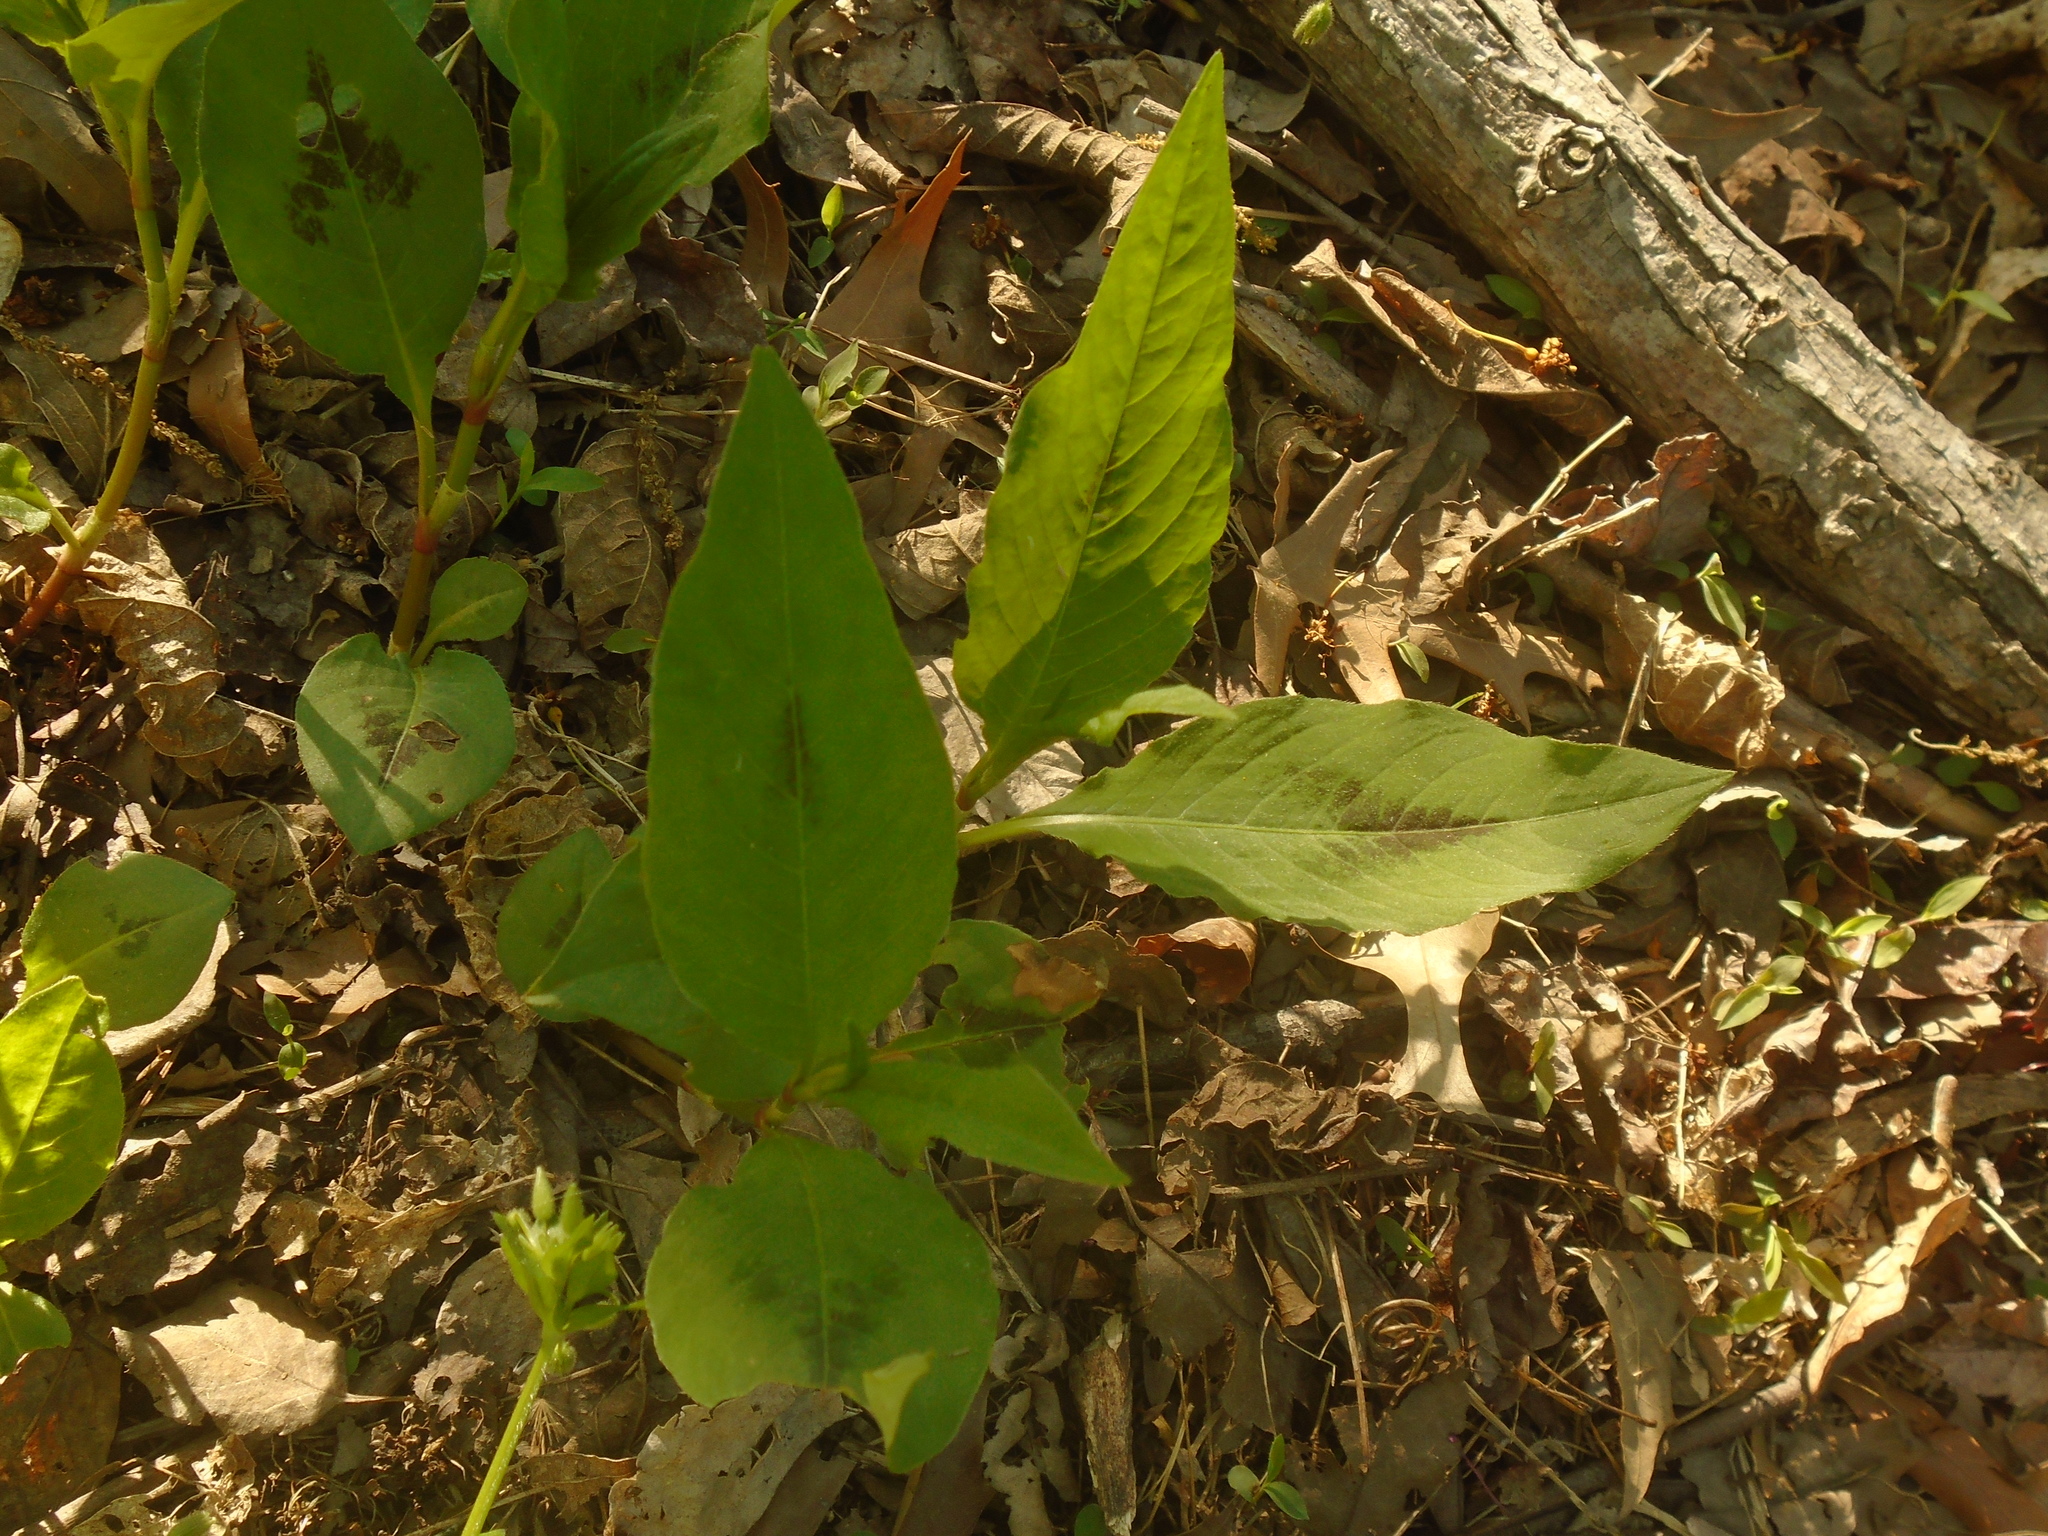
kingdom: Plantae
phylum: Tracheophyta
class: Magnoliopsida
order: Caryophyllales
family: Polygonaceae
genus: Persicaria
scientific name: Persicaria virginiana
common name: Jumpseed
